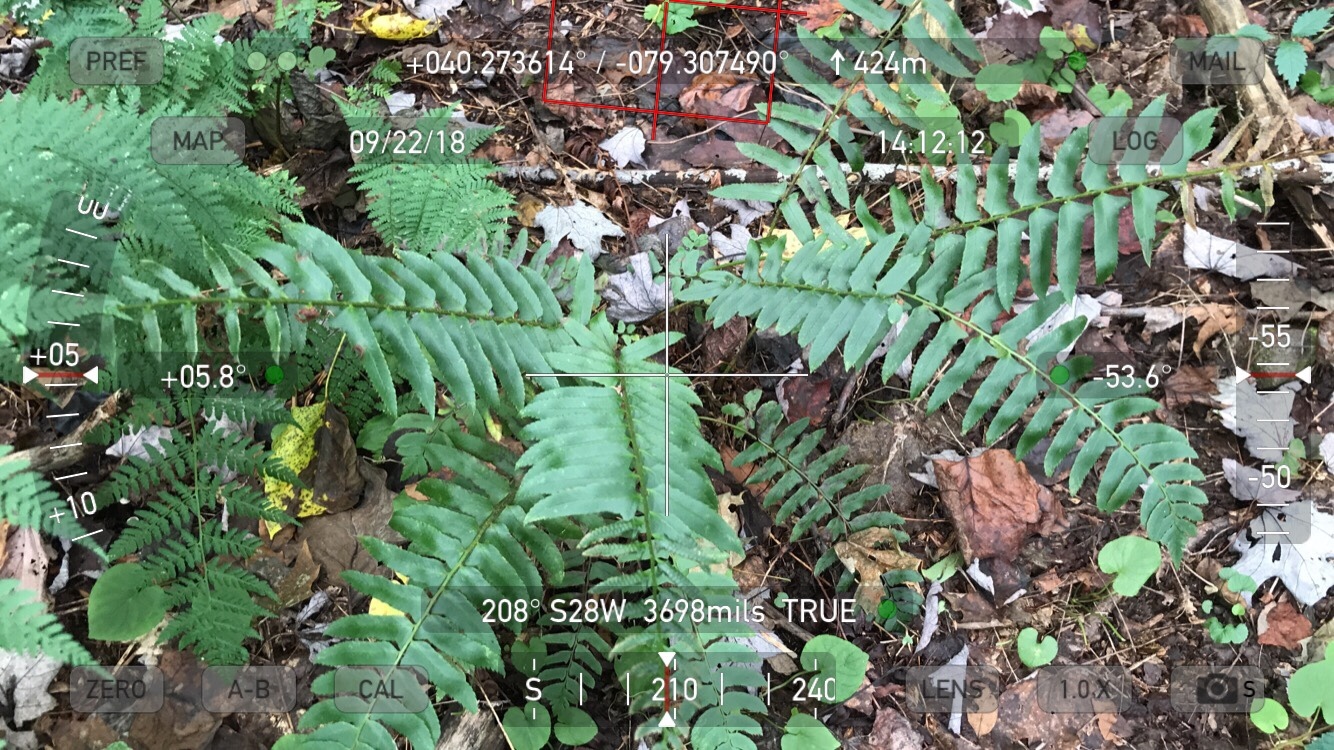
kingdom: Plantae
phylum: Tracheophyta
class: Polypodiopsida
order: Polypodiales
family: Dryopteridaceae
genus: Polystichum
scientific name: Polystichum acrostichoides
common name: Christmas fern
